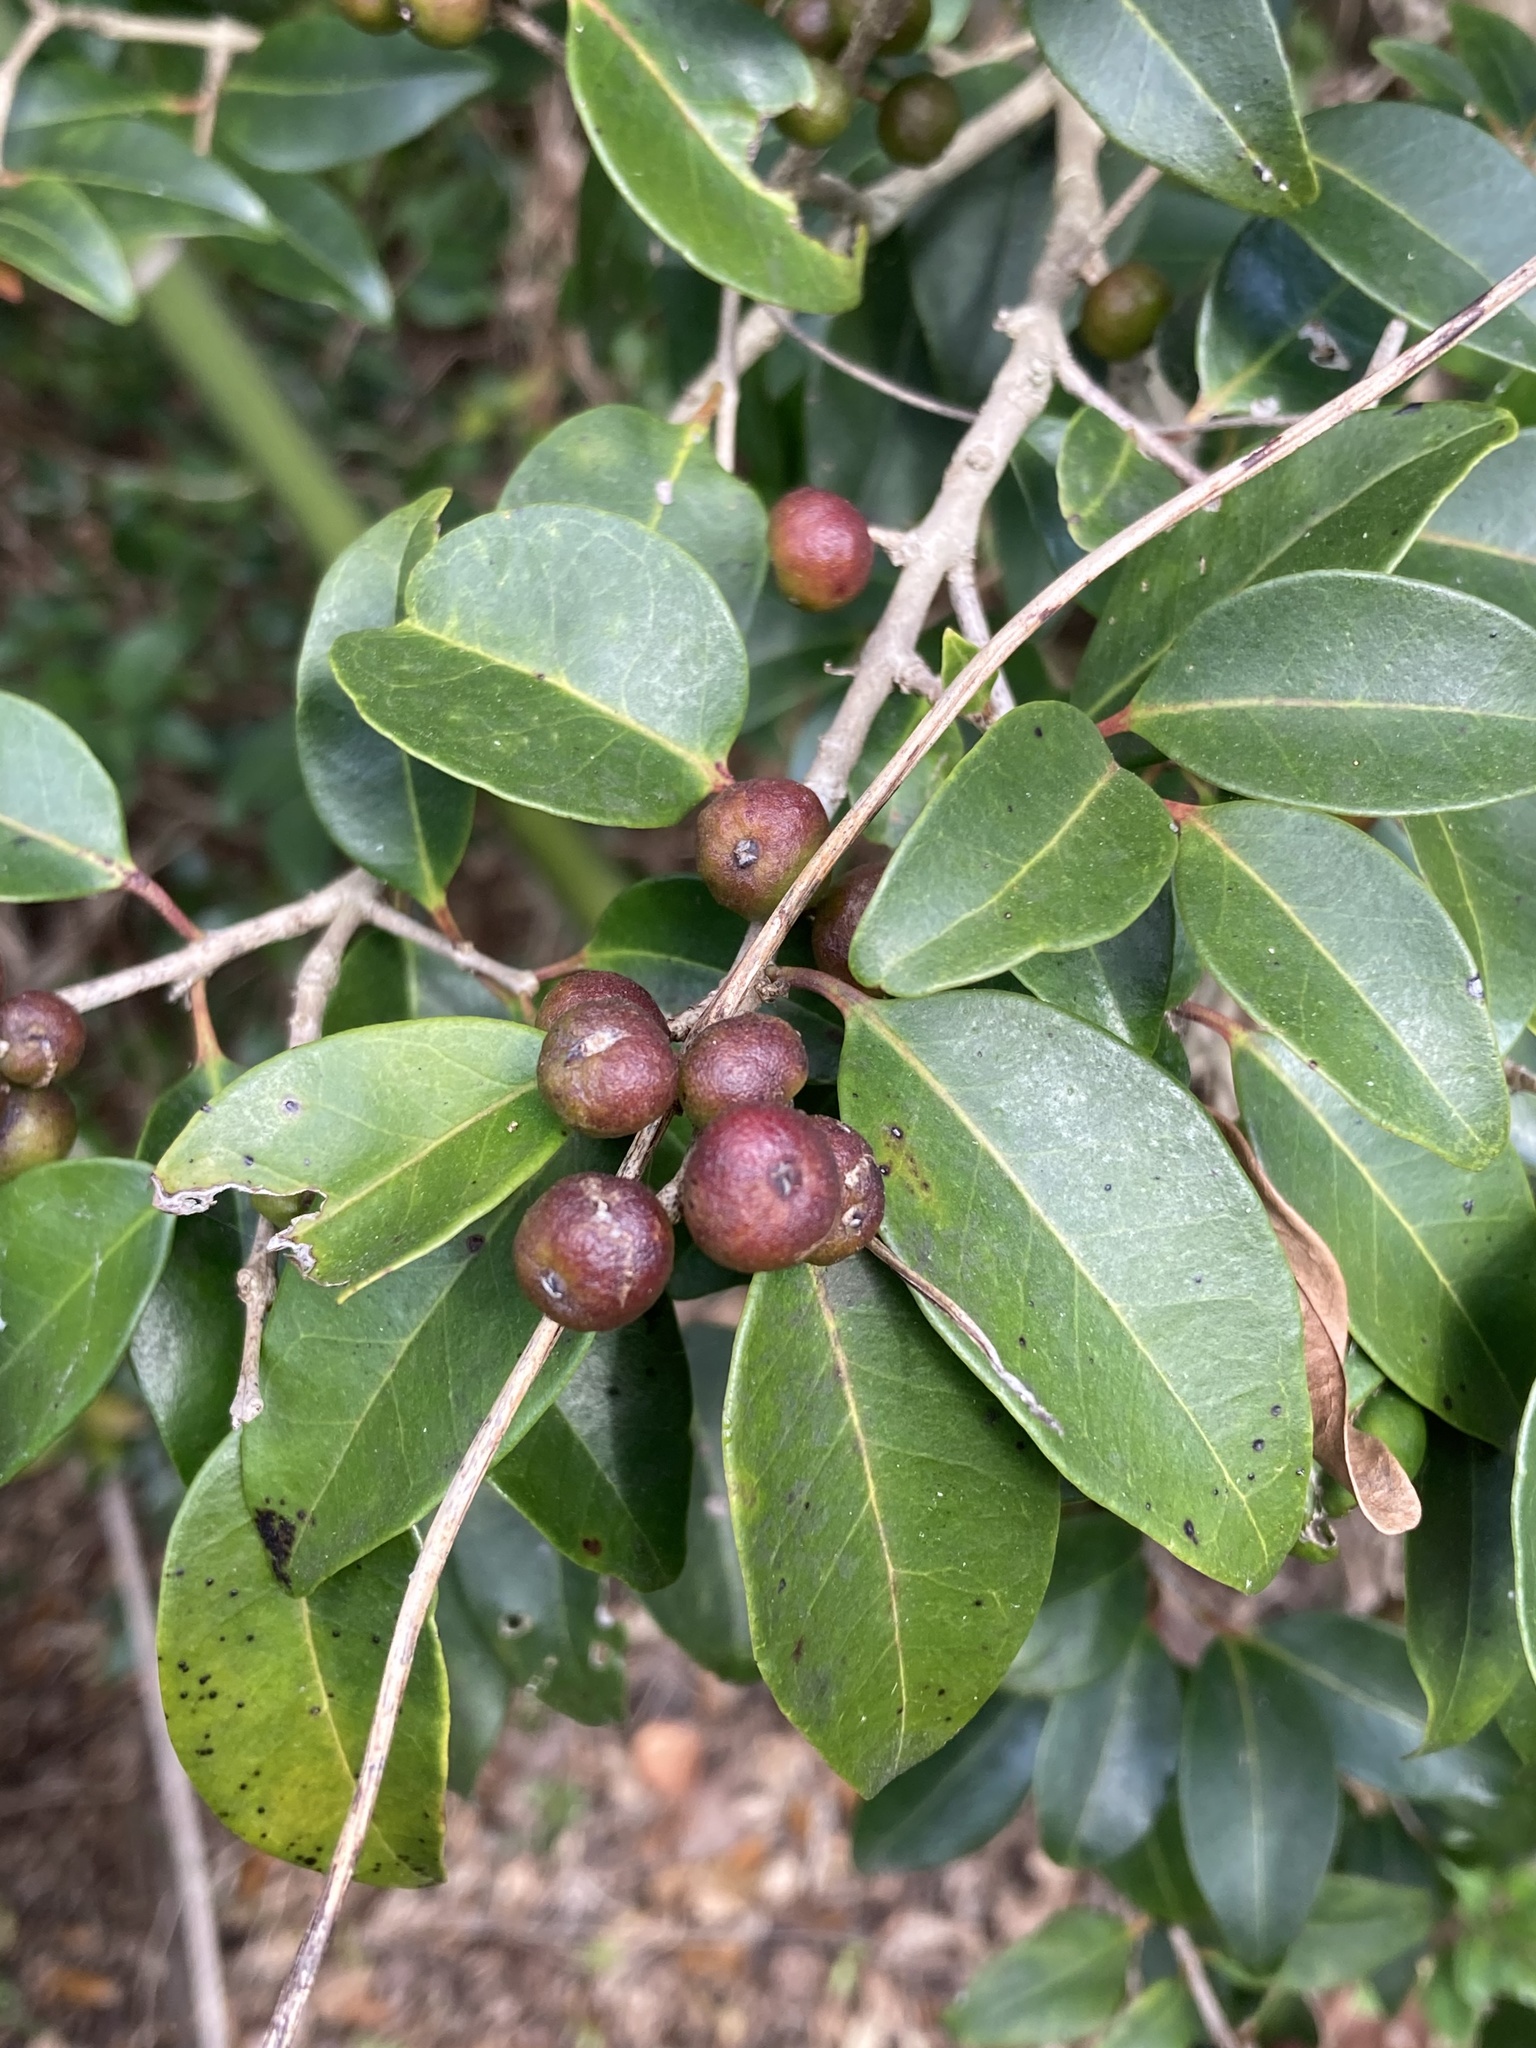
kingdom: Plantae
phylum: Tracheophyta
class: Magnoliopsida
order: Myrtales
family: Myrtaceae
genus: Eugenia
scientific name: Eugenia axillaris
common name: Choaky berry
